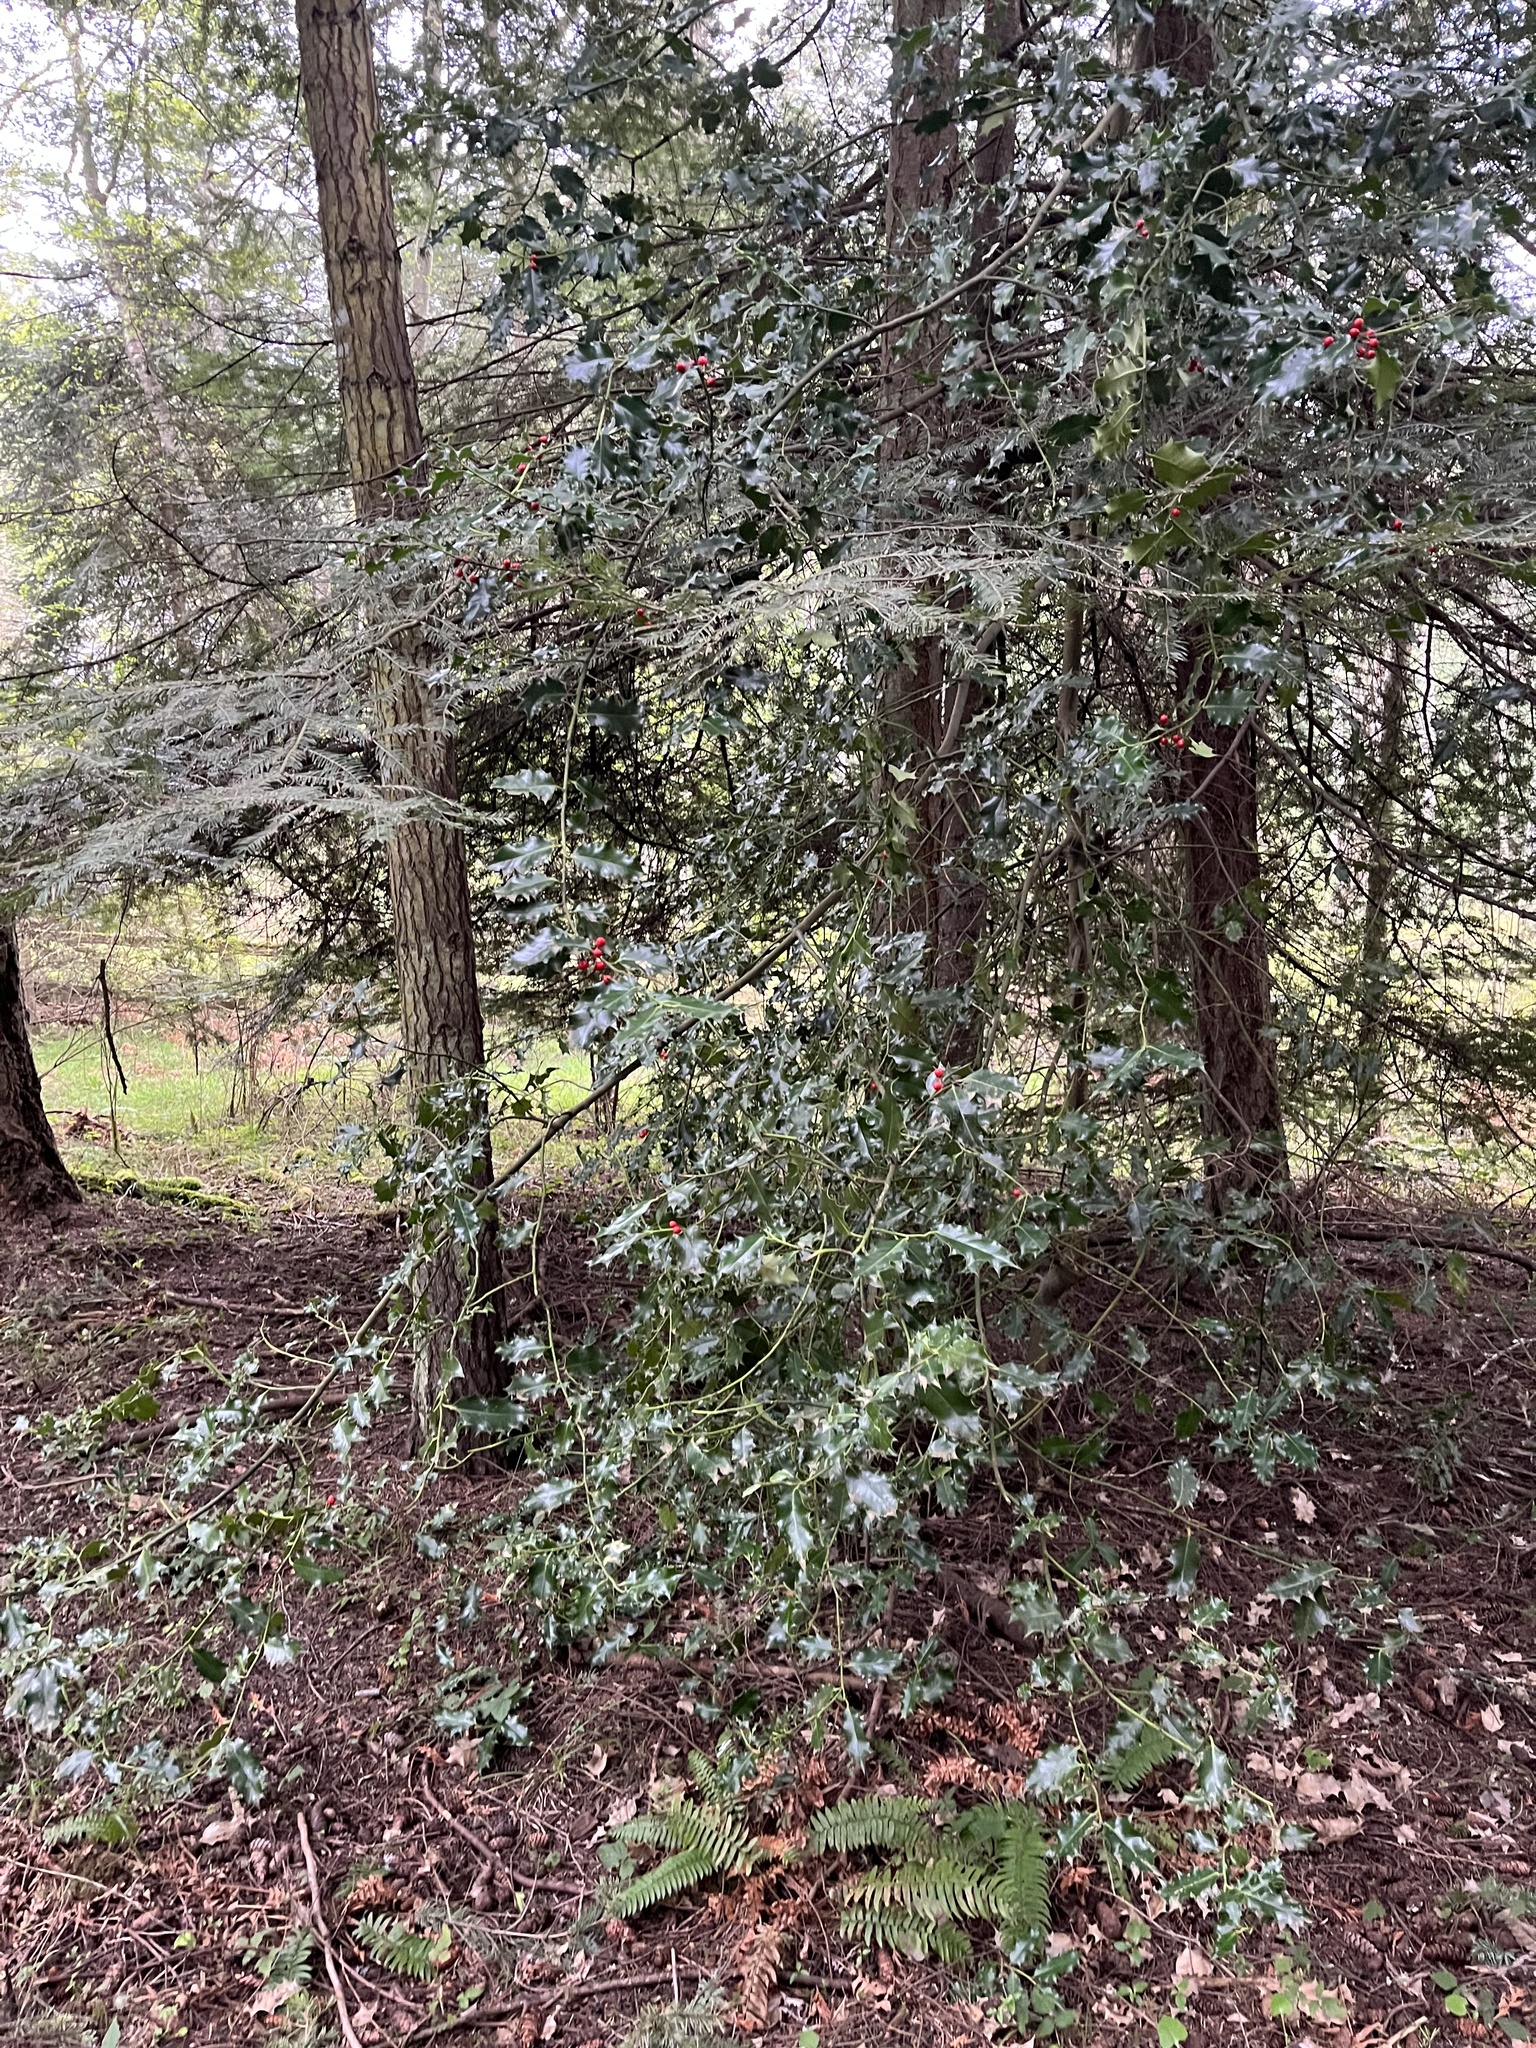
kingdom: Plantae
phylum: Tracheophyta
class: Magnoliopsida
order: Aquifoliales
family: Aquifoliaceae
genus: Ilex
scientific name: Ilex aquifolium
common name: English holly
